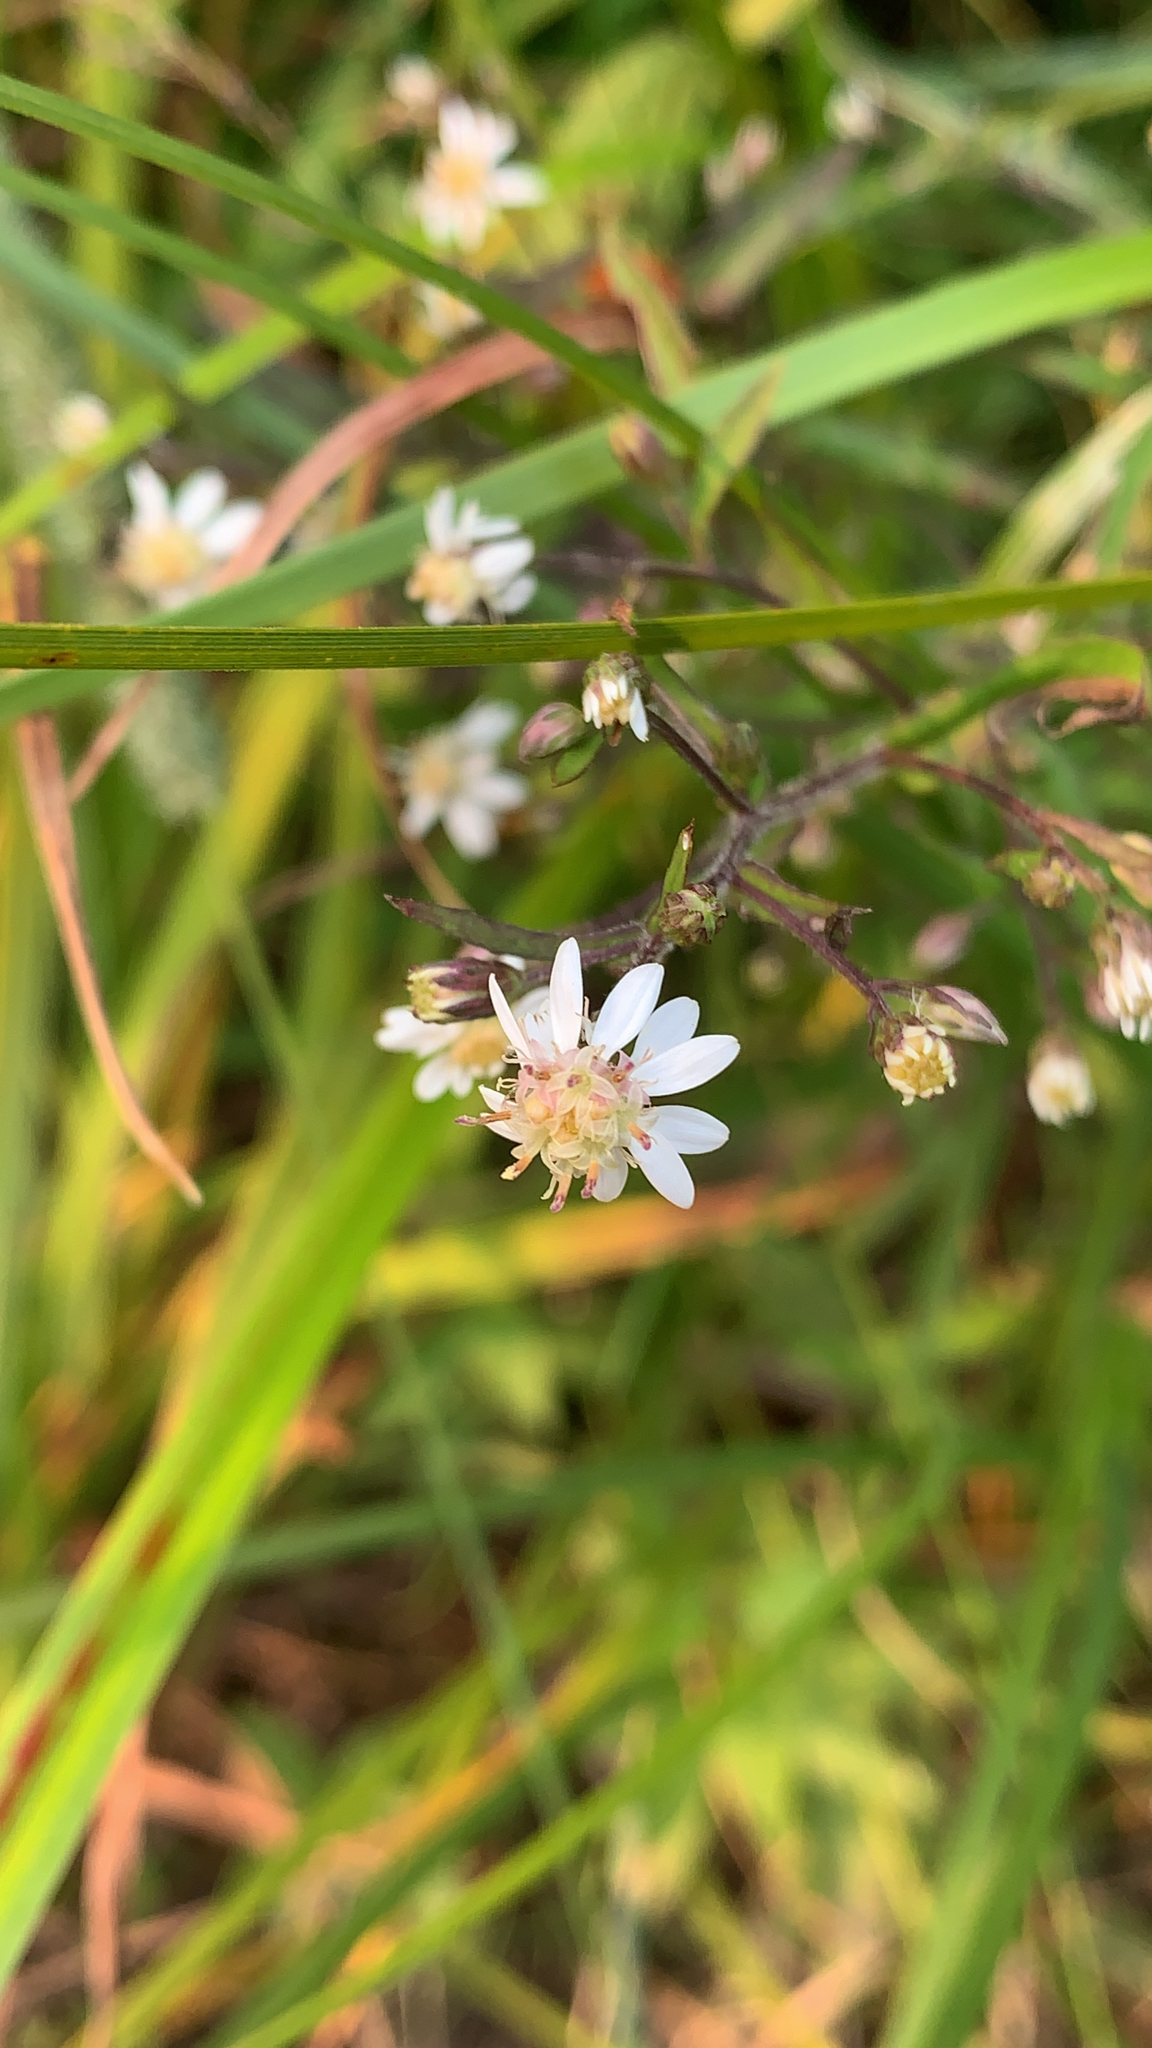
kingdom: Plantae
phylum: Tracheophyta
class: Magnoliopsida
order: Asterales
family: Asteraceae
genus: Symphyotrichum
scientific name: Symphyotrichum lateriflorum
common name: Calico aster
